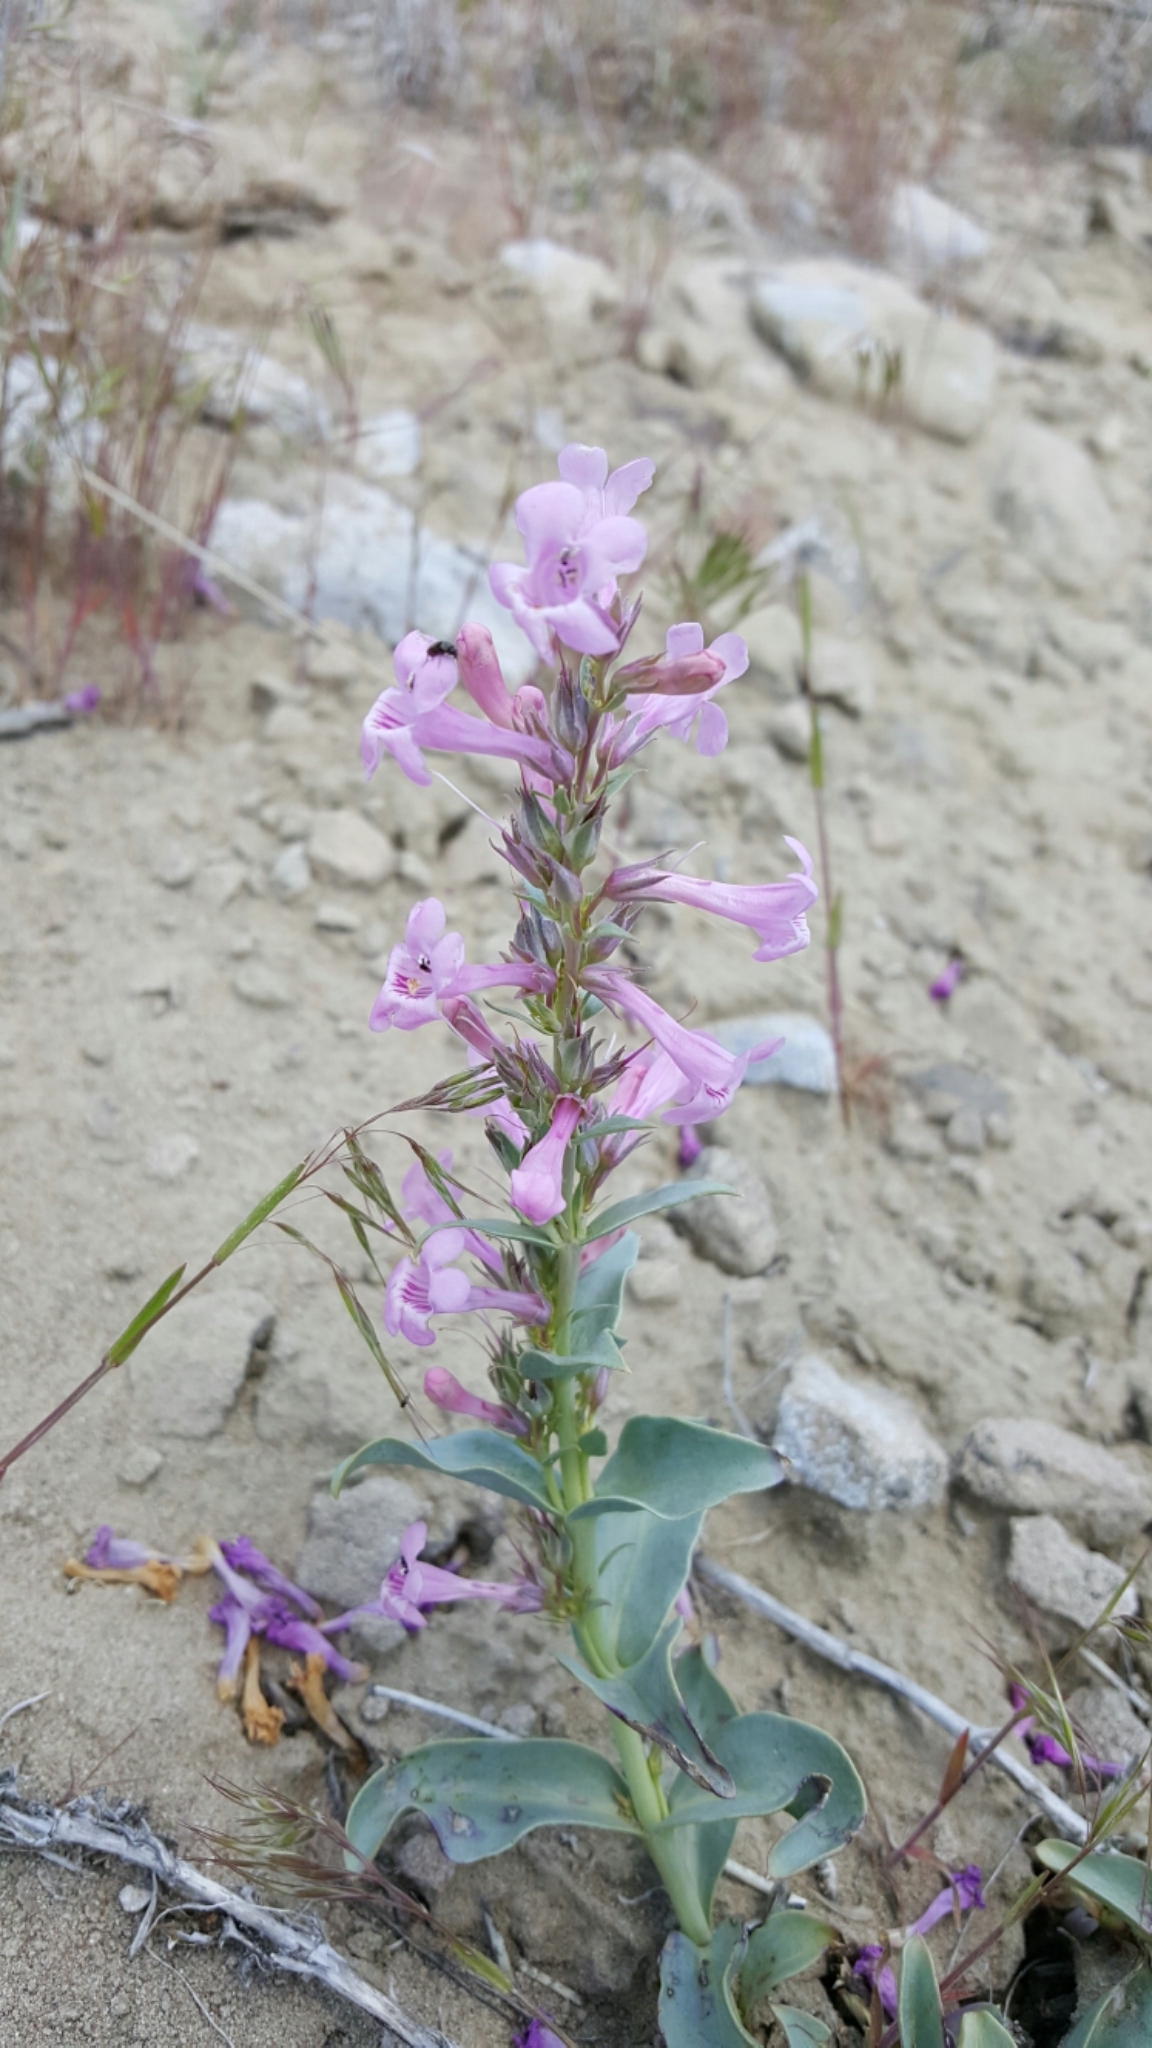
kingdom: Plantae
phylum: Tracheophyta
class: Magnoliopsida
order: Lamiales
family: Plantaginaceae
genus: Penstemon
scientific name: Penstemon flowersii
